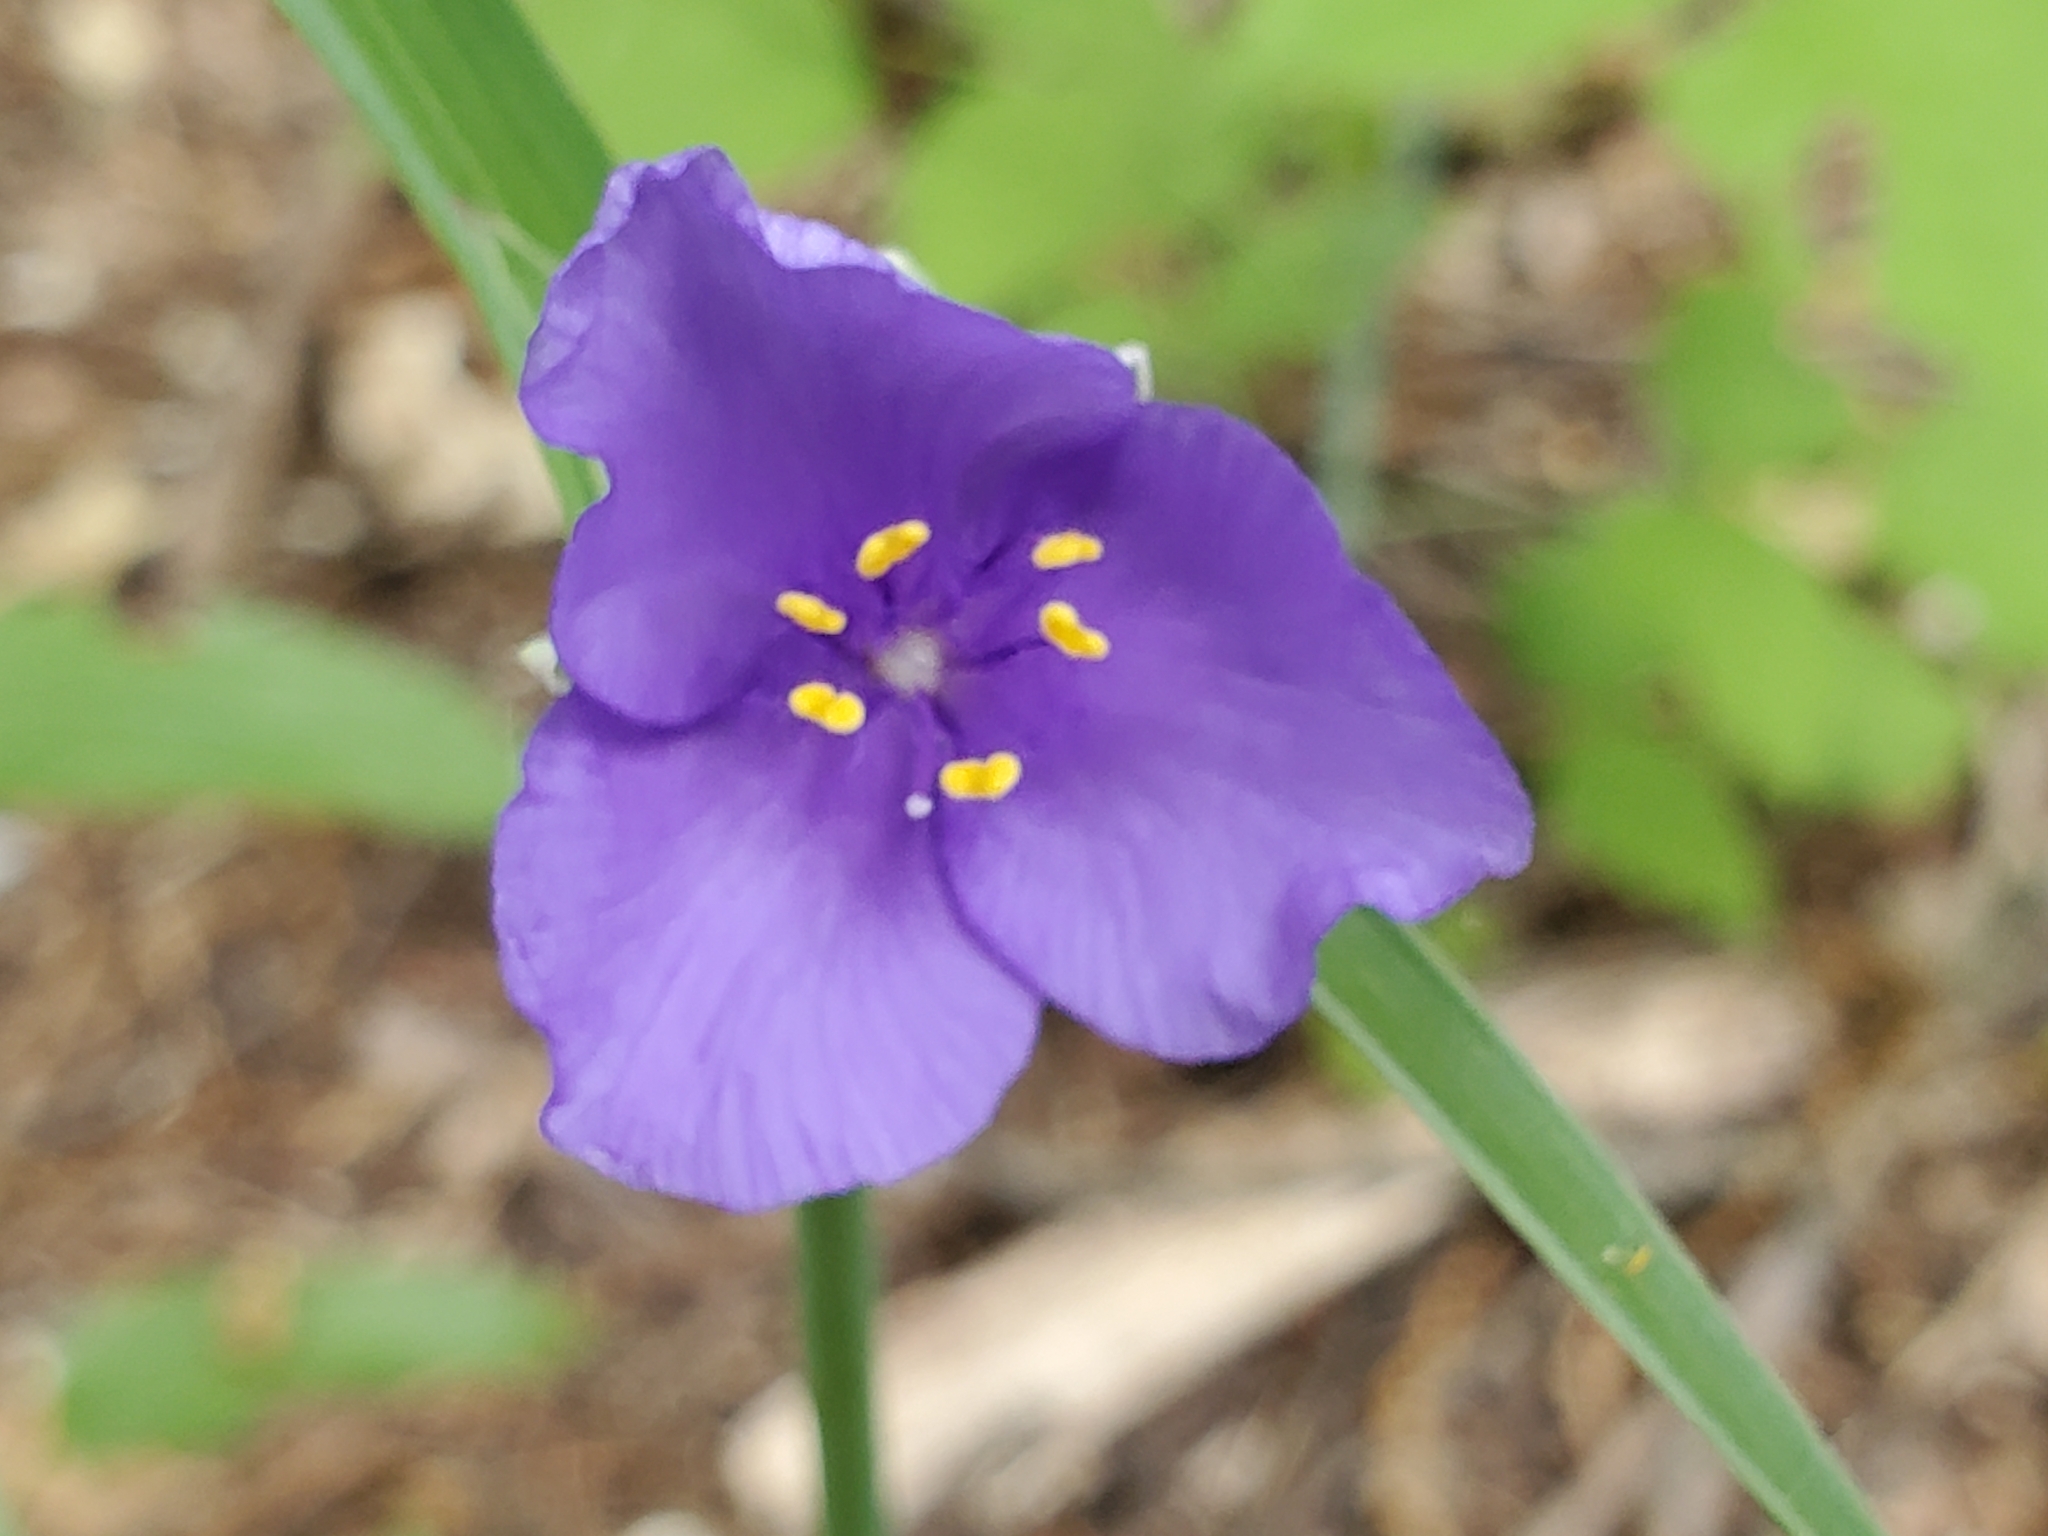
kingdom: Plantae
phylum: Tracheophyta
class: Liliopsida
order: Commelinales
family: Commelinaceae
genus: Tradescantia
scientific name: Tradescantia ohiensis
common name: Ohio spiderwort
